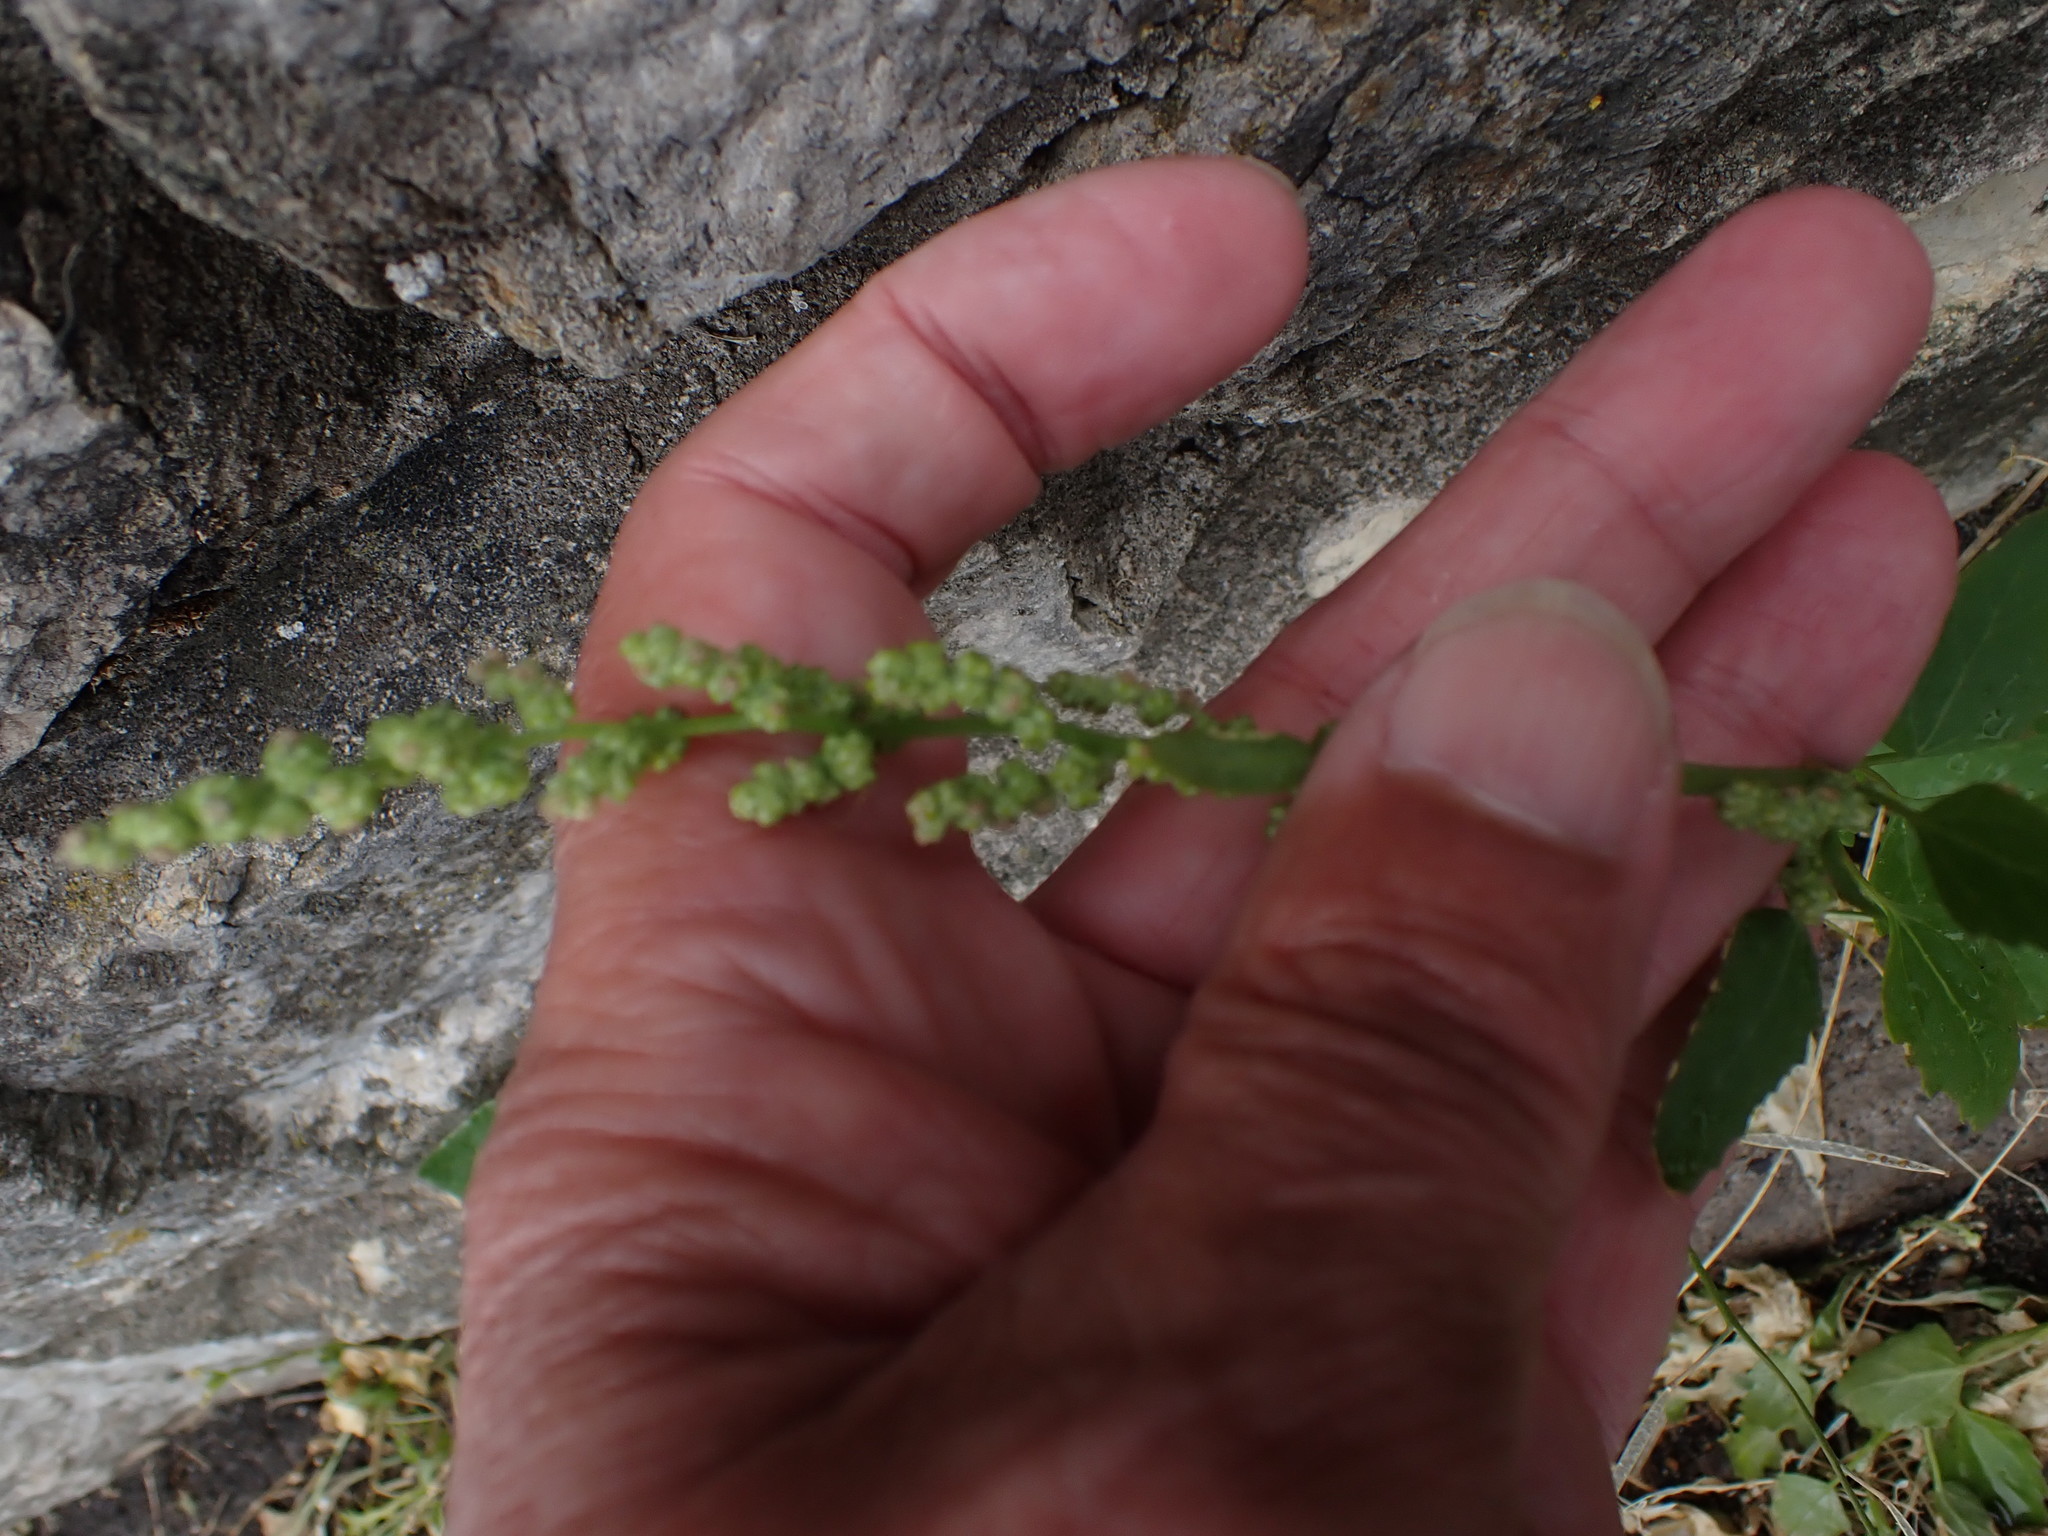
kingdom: Plantae
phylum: Tracheophyta
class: Magnoliopsida
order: Caryophyllales
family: Amaranthaceae
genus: Chenopodium
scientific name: Chenopodium album
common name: Fat-hen
